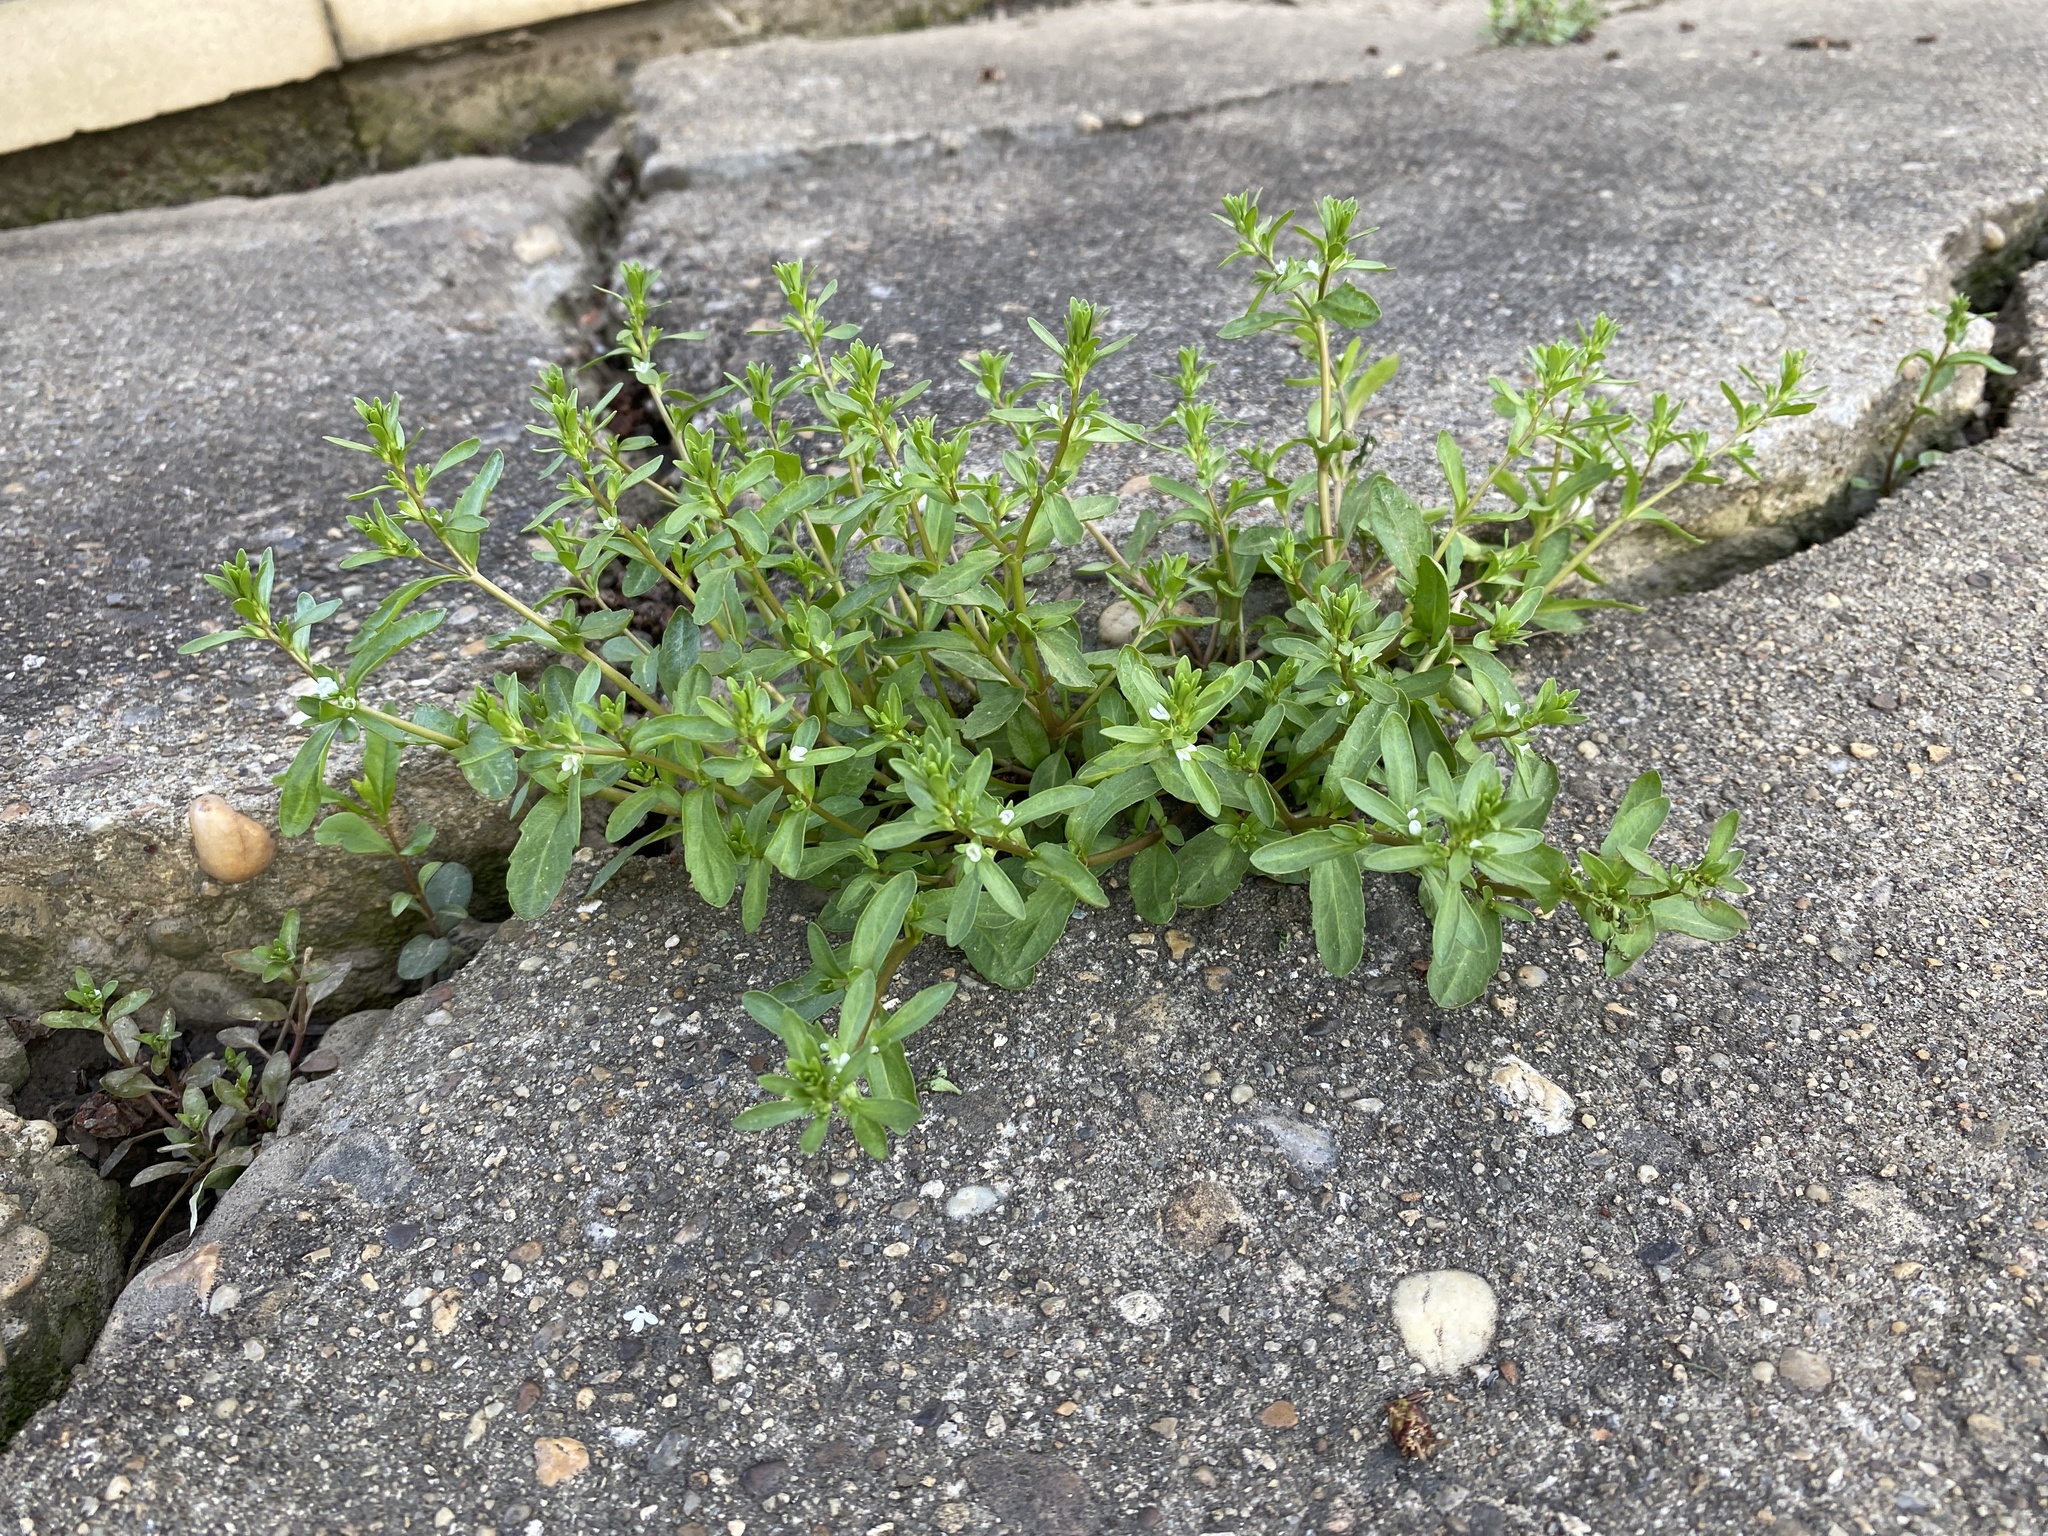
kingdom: Plantae
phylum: Tracheophyta
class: Magnoliopsida
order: Lamiales
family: Plantaginaceae
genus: Veronica
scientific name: Veronica peregrina
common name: Neckweed
